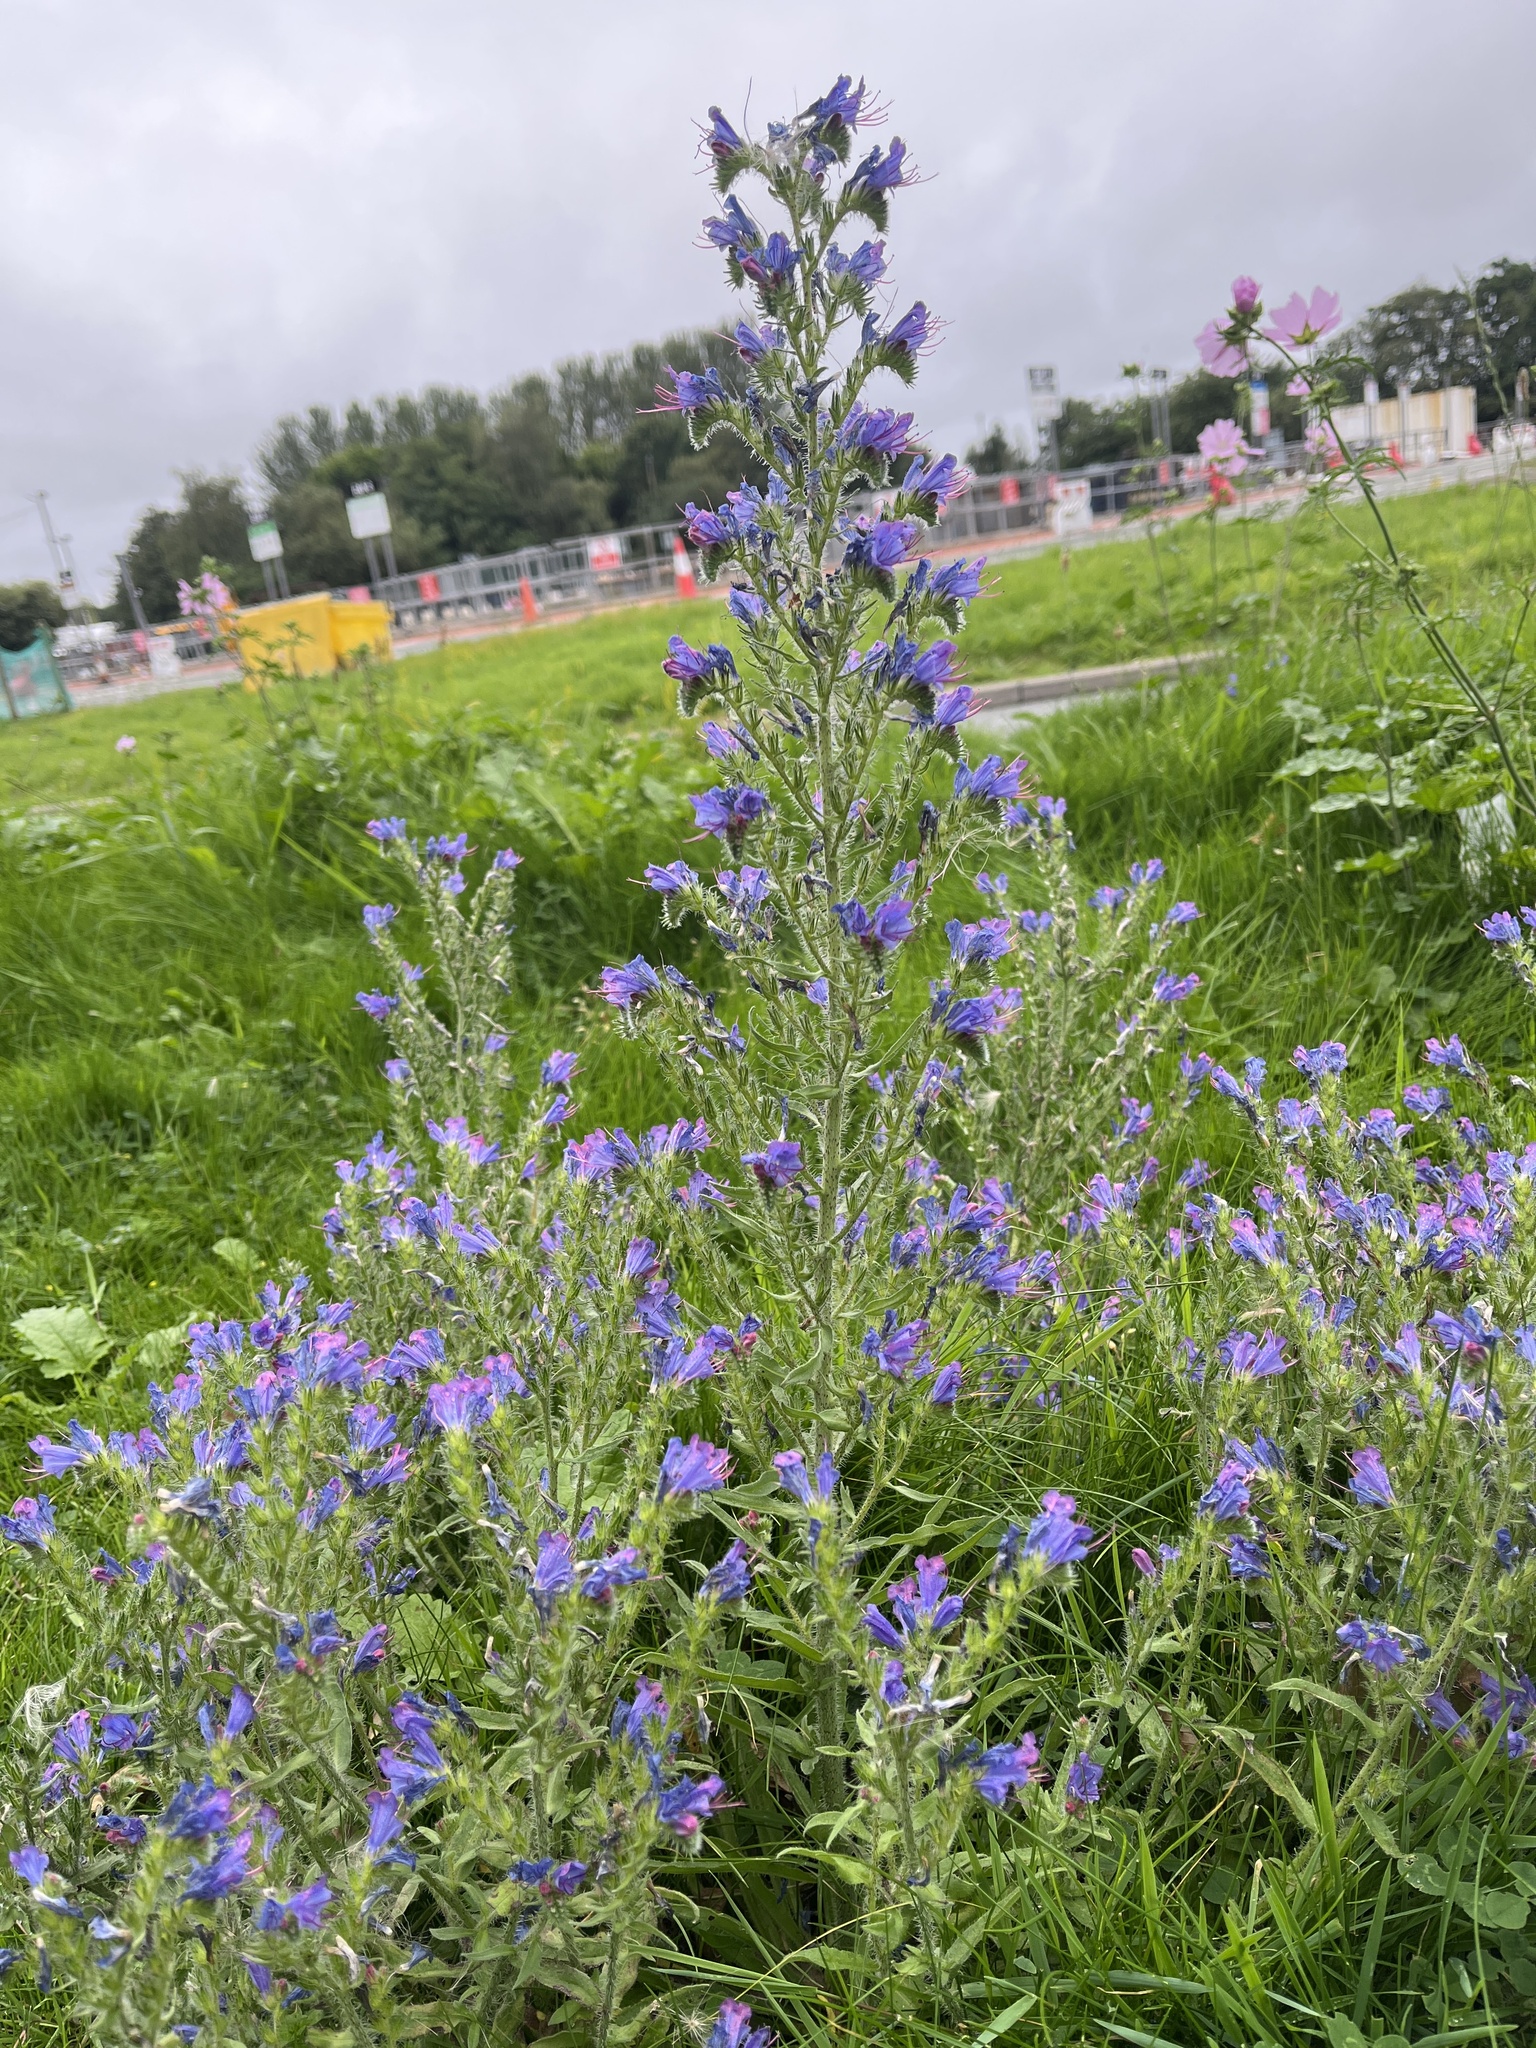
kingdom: Plantae
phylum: Tracheophyta
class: Magnoliopsida
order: Boraginales
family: Boraginaceae
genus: Echium
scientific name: Echium vulgare
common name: Common viper's bugloss
